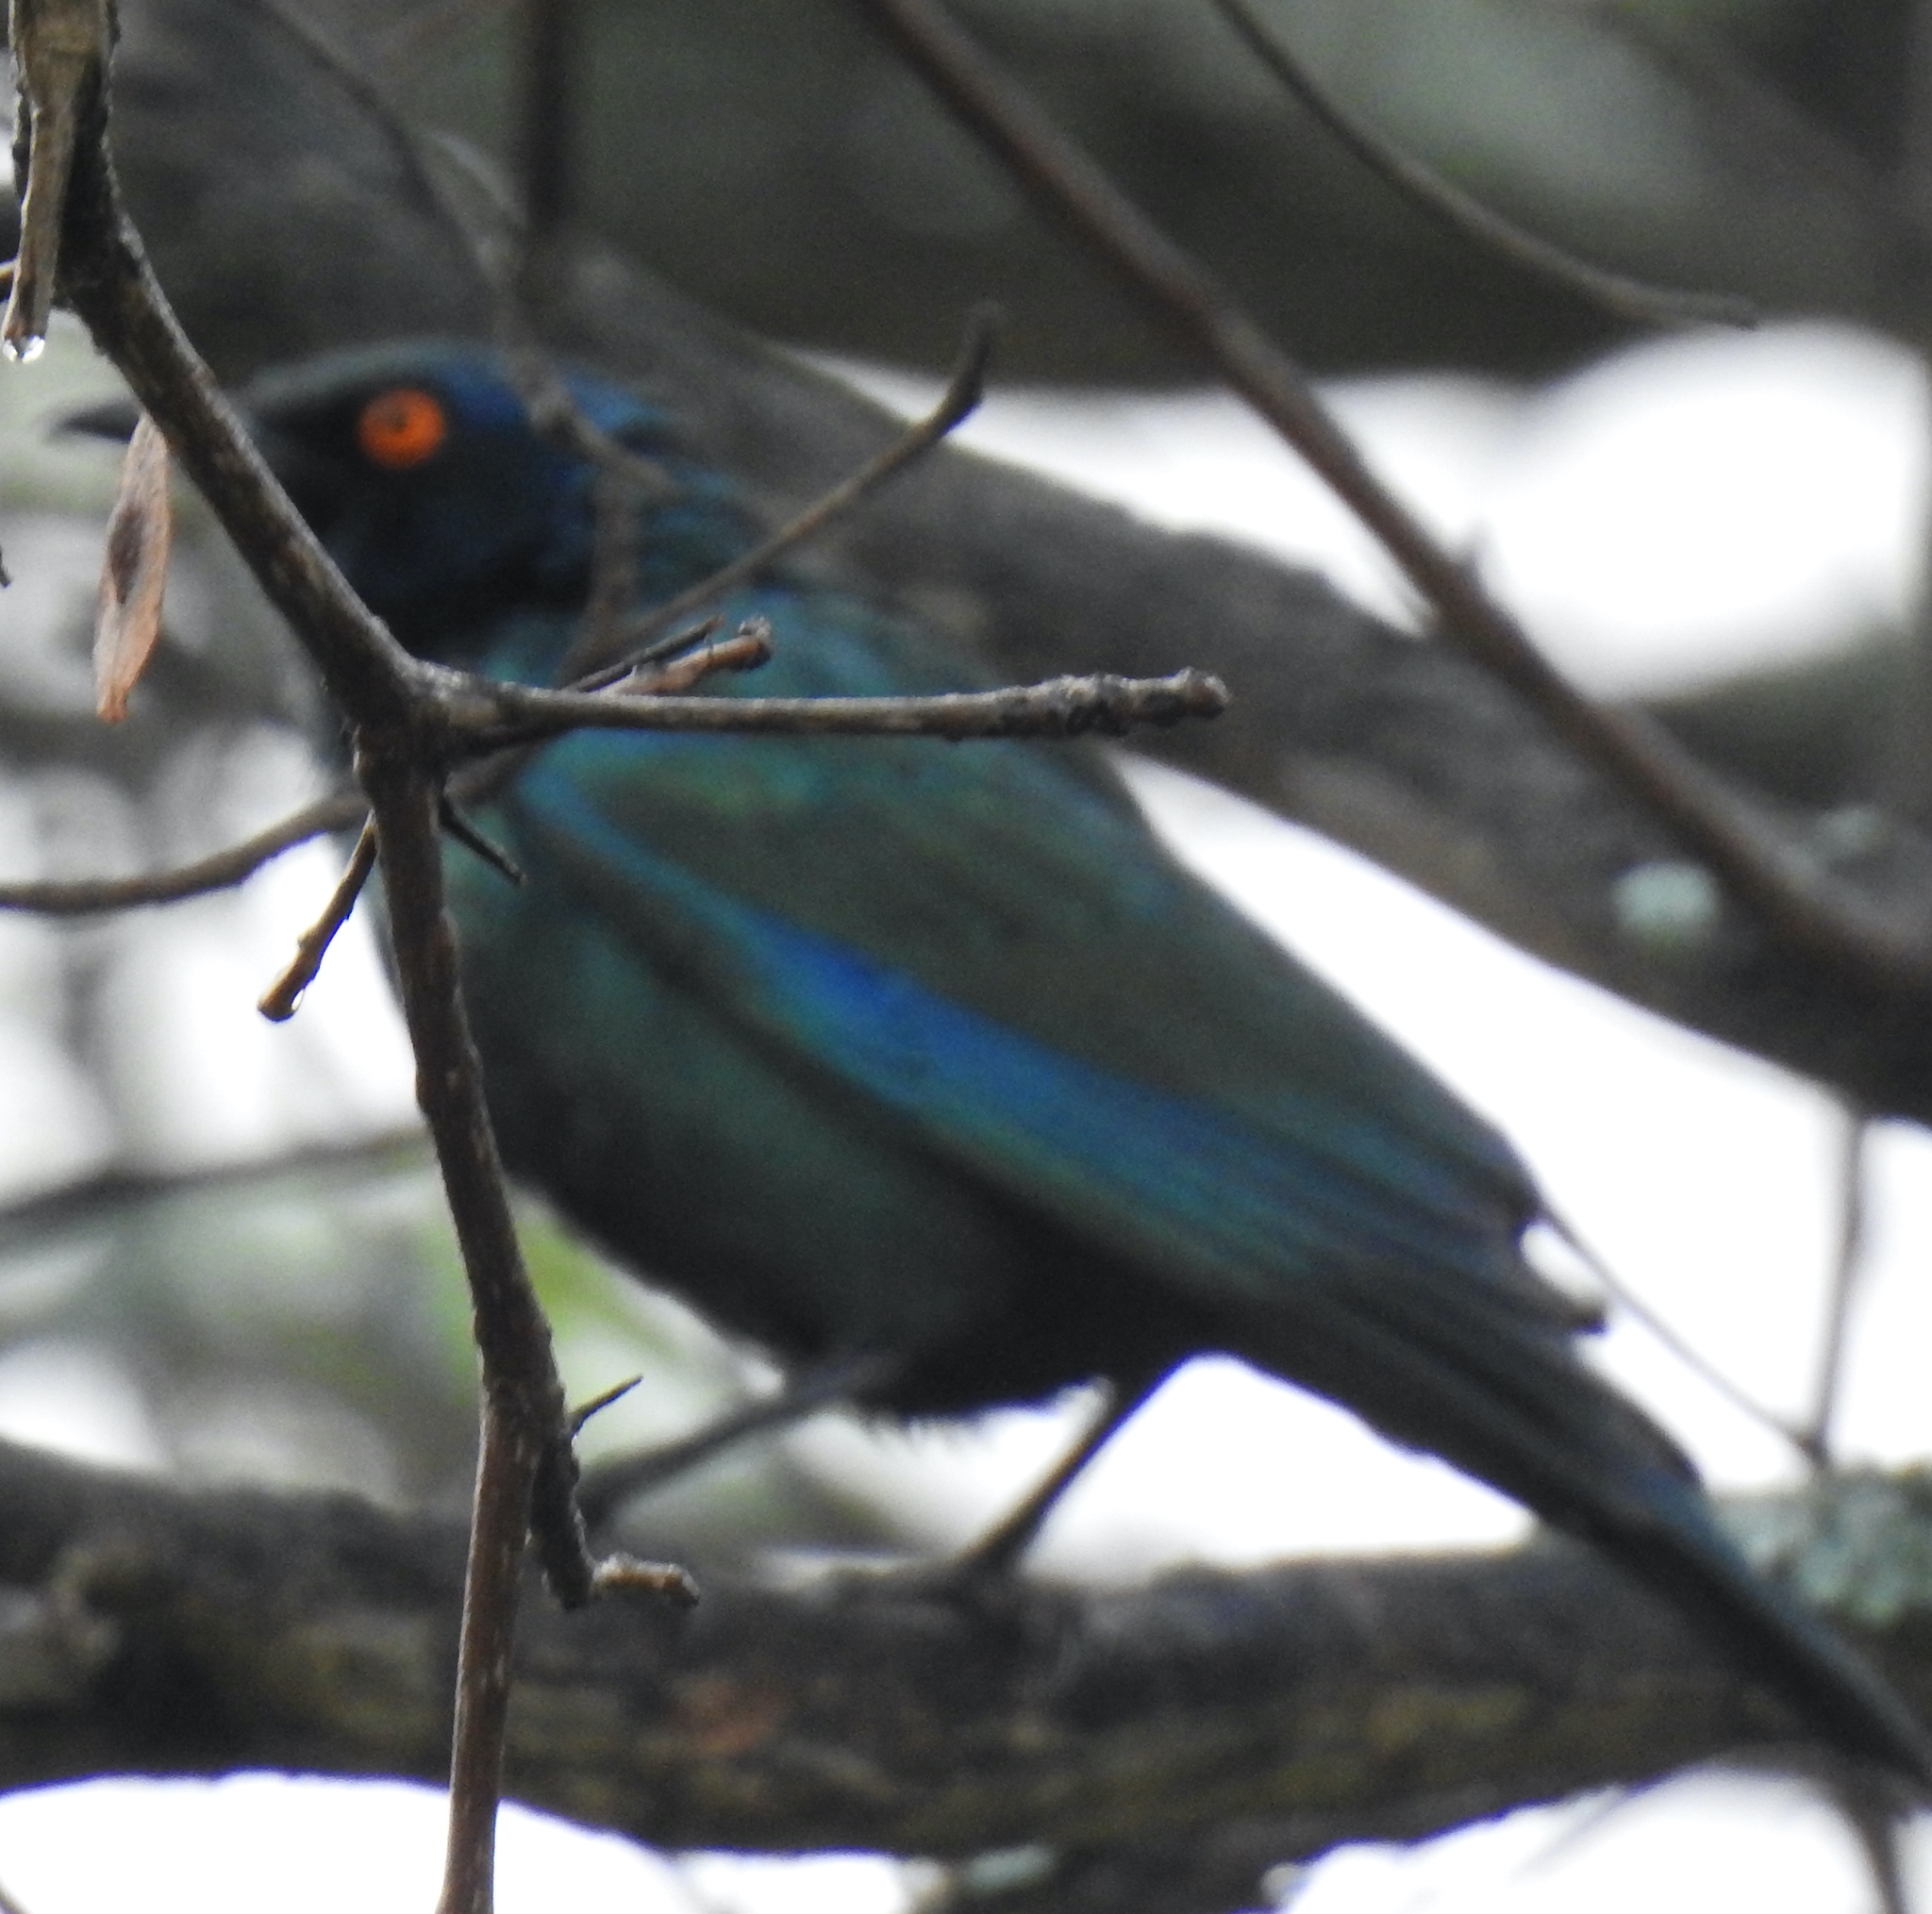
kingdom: Animalia
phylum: Chordata
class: Aves
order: Passeriformes
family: Sturnidae
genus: Lamprotornis
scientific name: Lamprotornis nitens
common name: Cape starling
